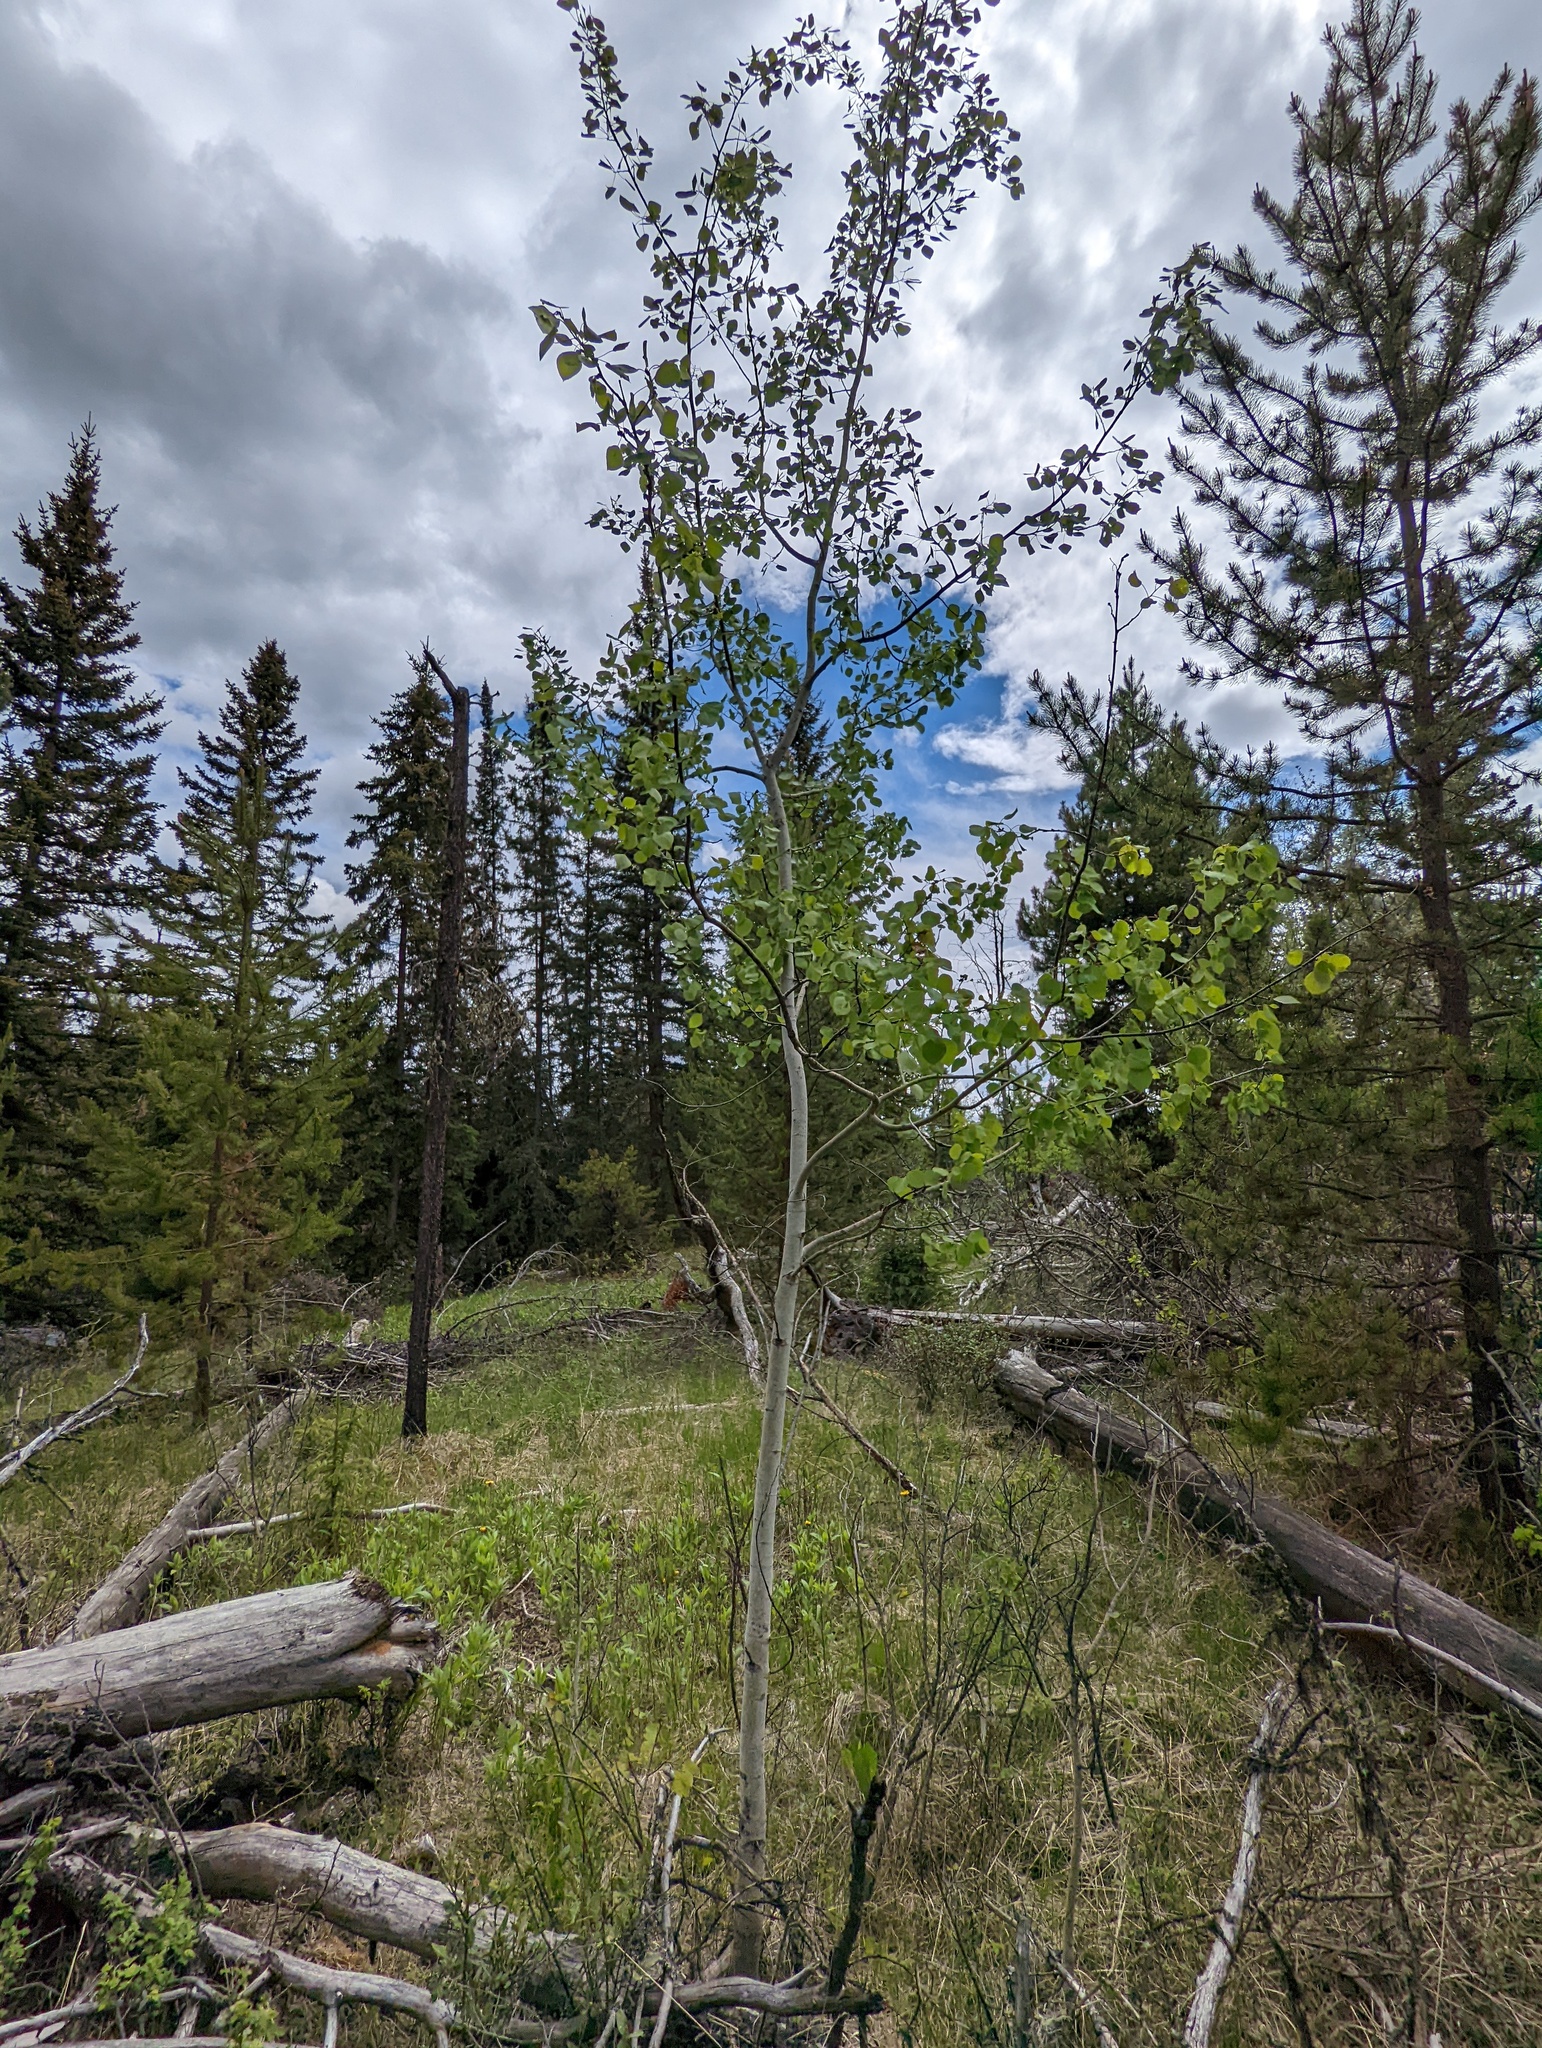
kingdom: Plantae
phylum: Tracheophyta
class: Magnoliopsida
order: Malpighiales
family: Salicaceae
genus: Populus
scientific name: Populus tremuloides
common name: Quaking aspen
